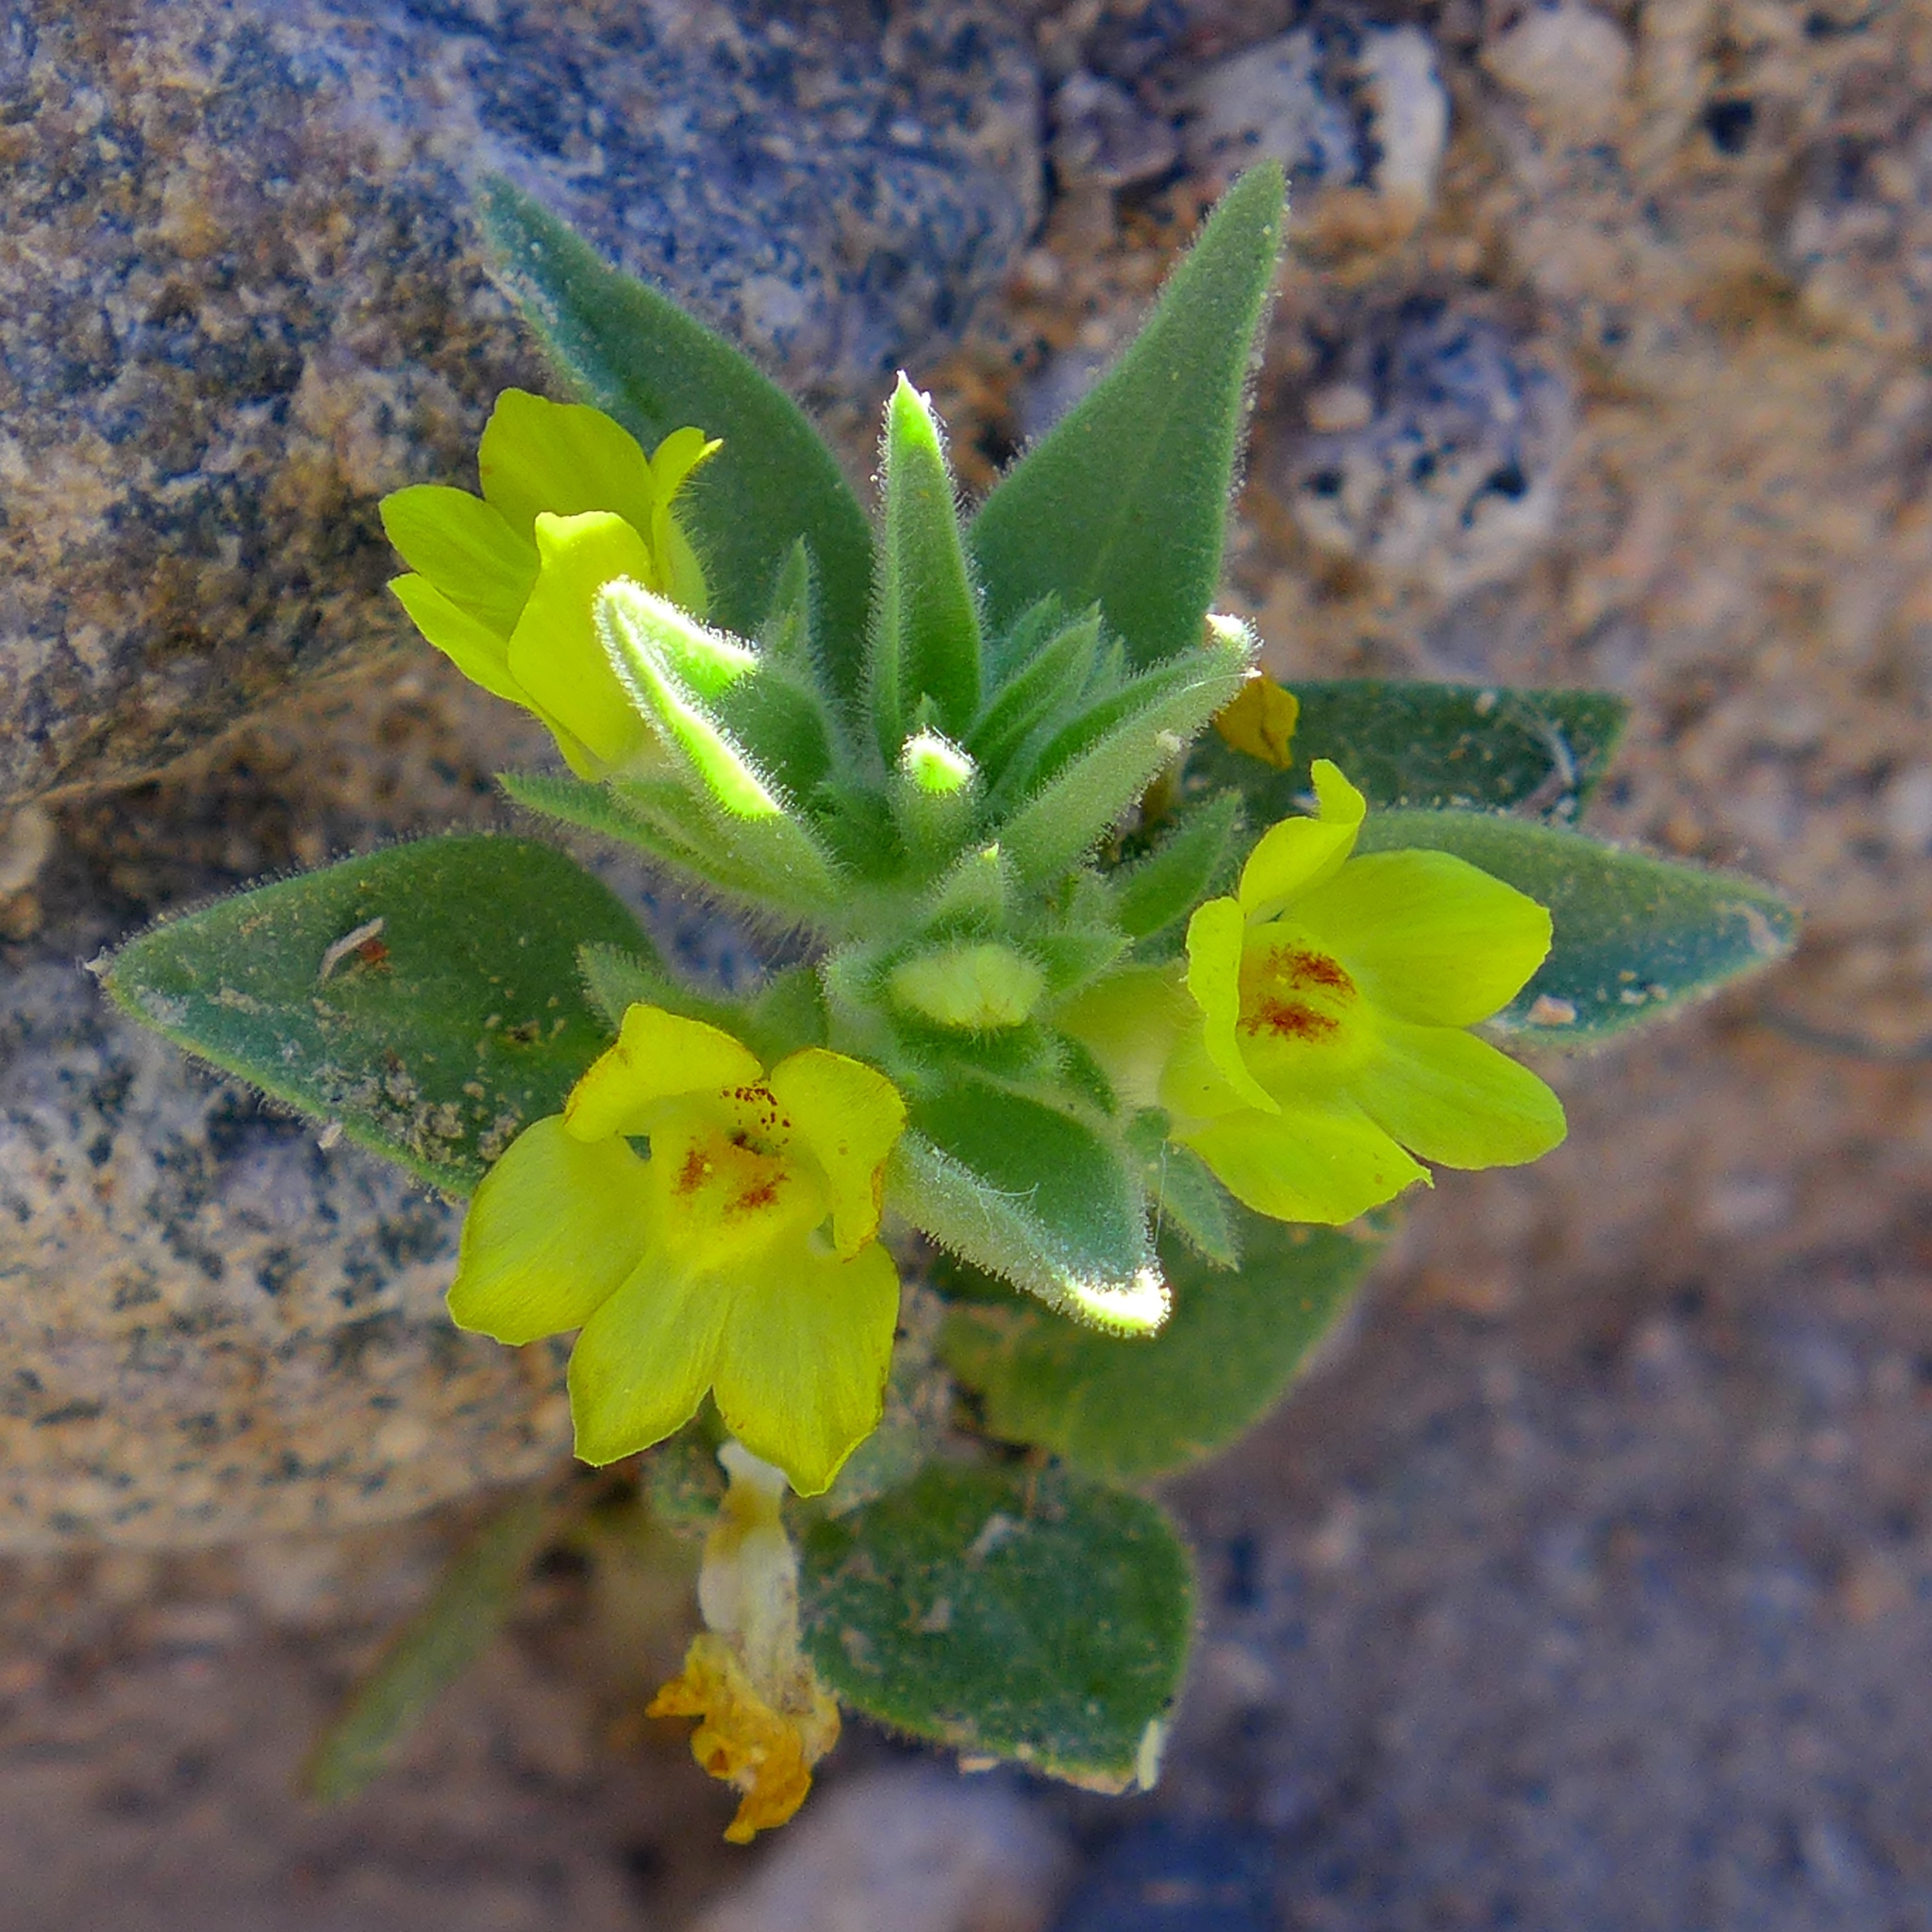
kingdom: Plantae
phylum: Tracheophyta
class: Magnoliopsida
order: Lamiales
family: Plantaginaceae
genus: Mohavea
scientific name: Mohavea breviflora
